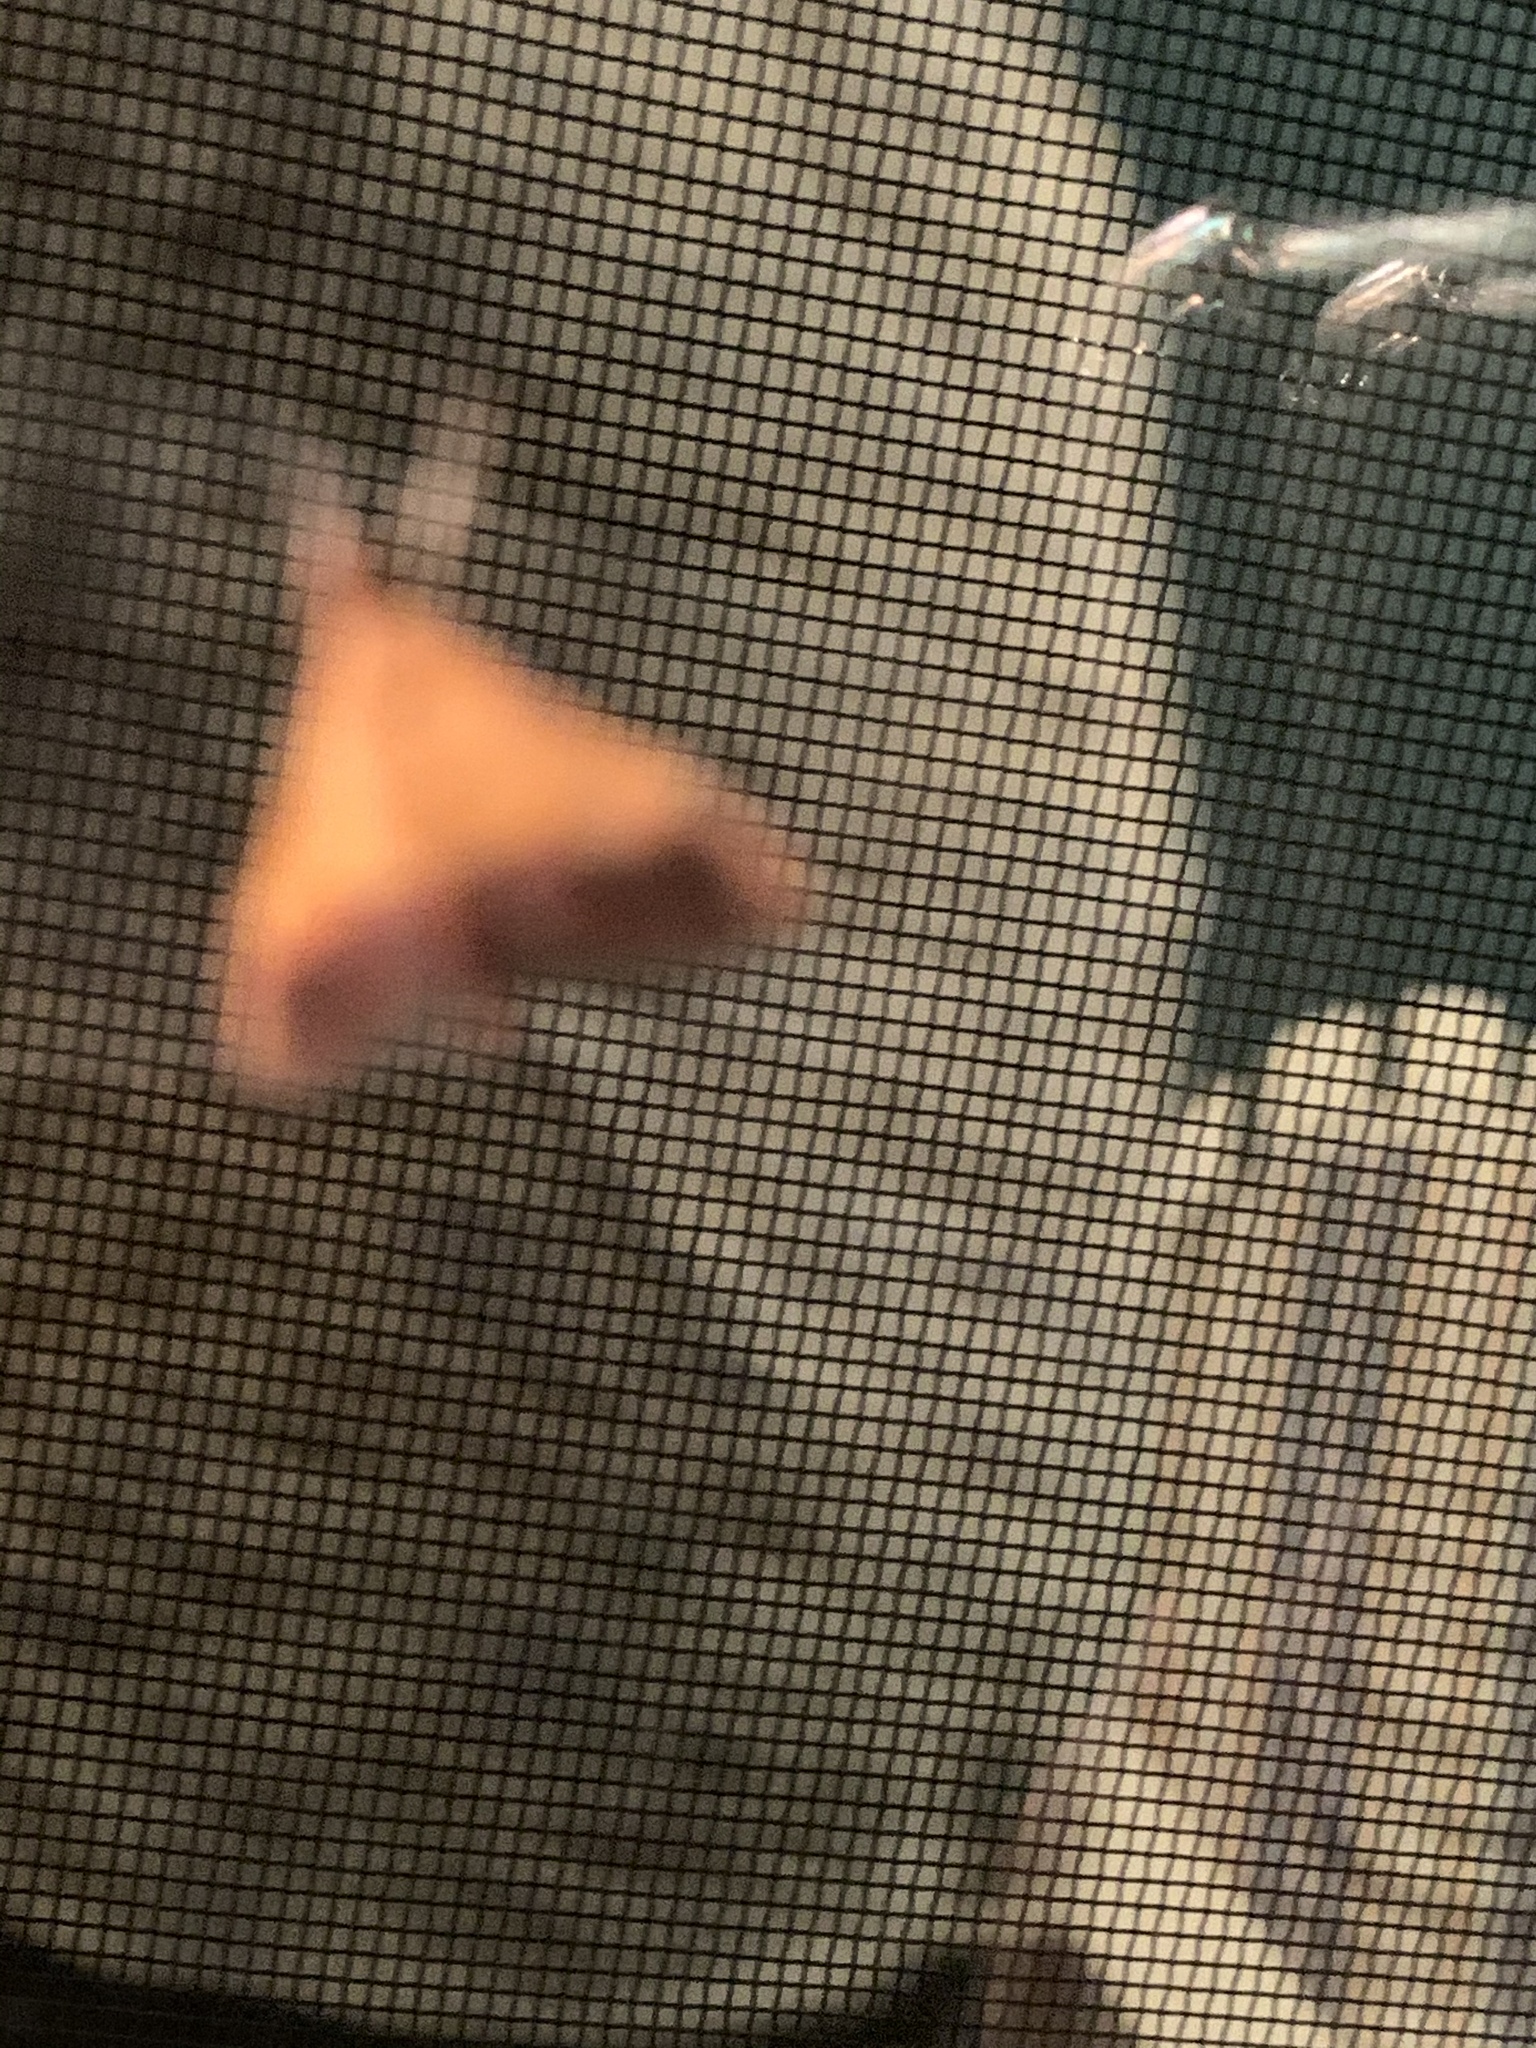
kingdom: Animalia
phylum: Arthropoda
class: Insecta
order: Lepidoptera
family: Crambidae
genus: Pyrausta
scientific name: Pyrausta bicoloralis
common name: Bicolored pyrausta moth
